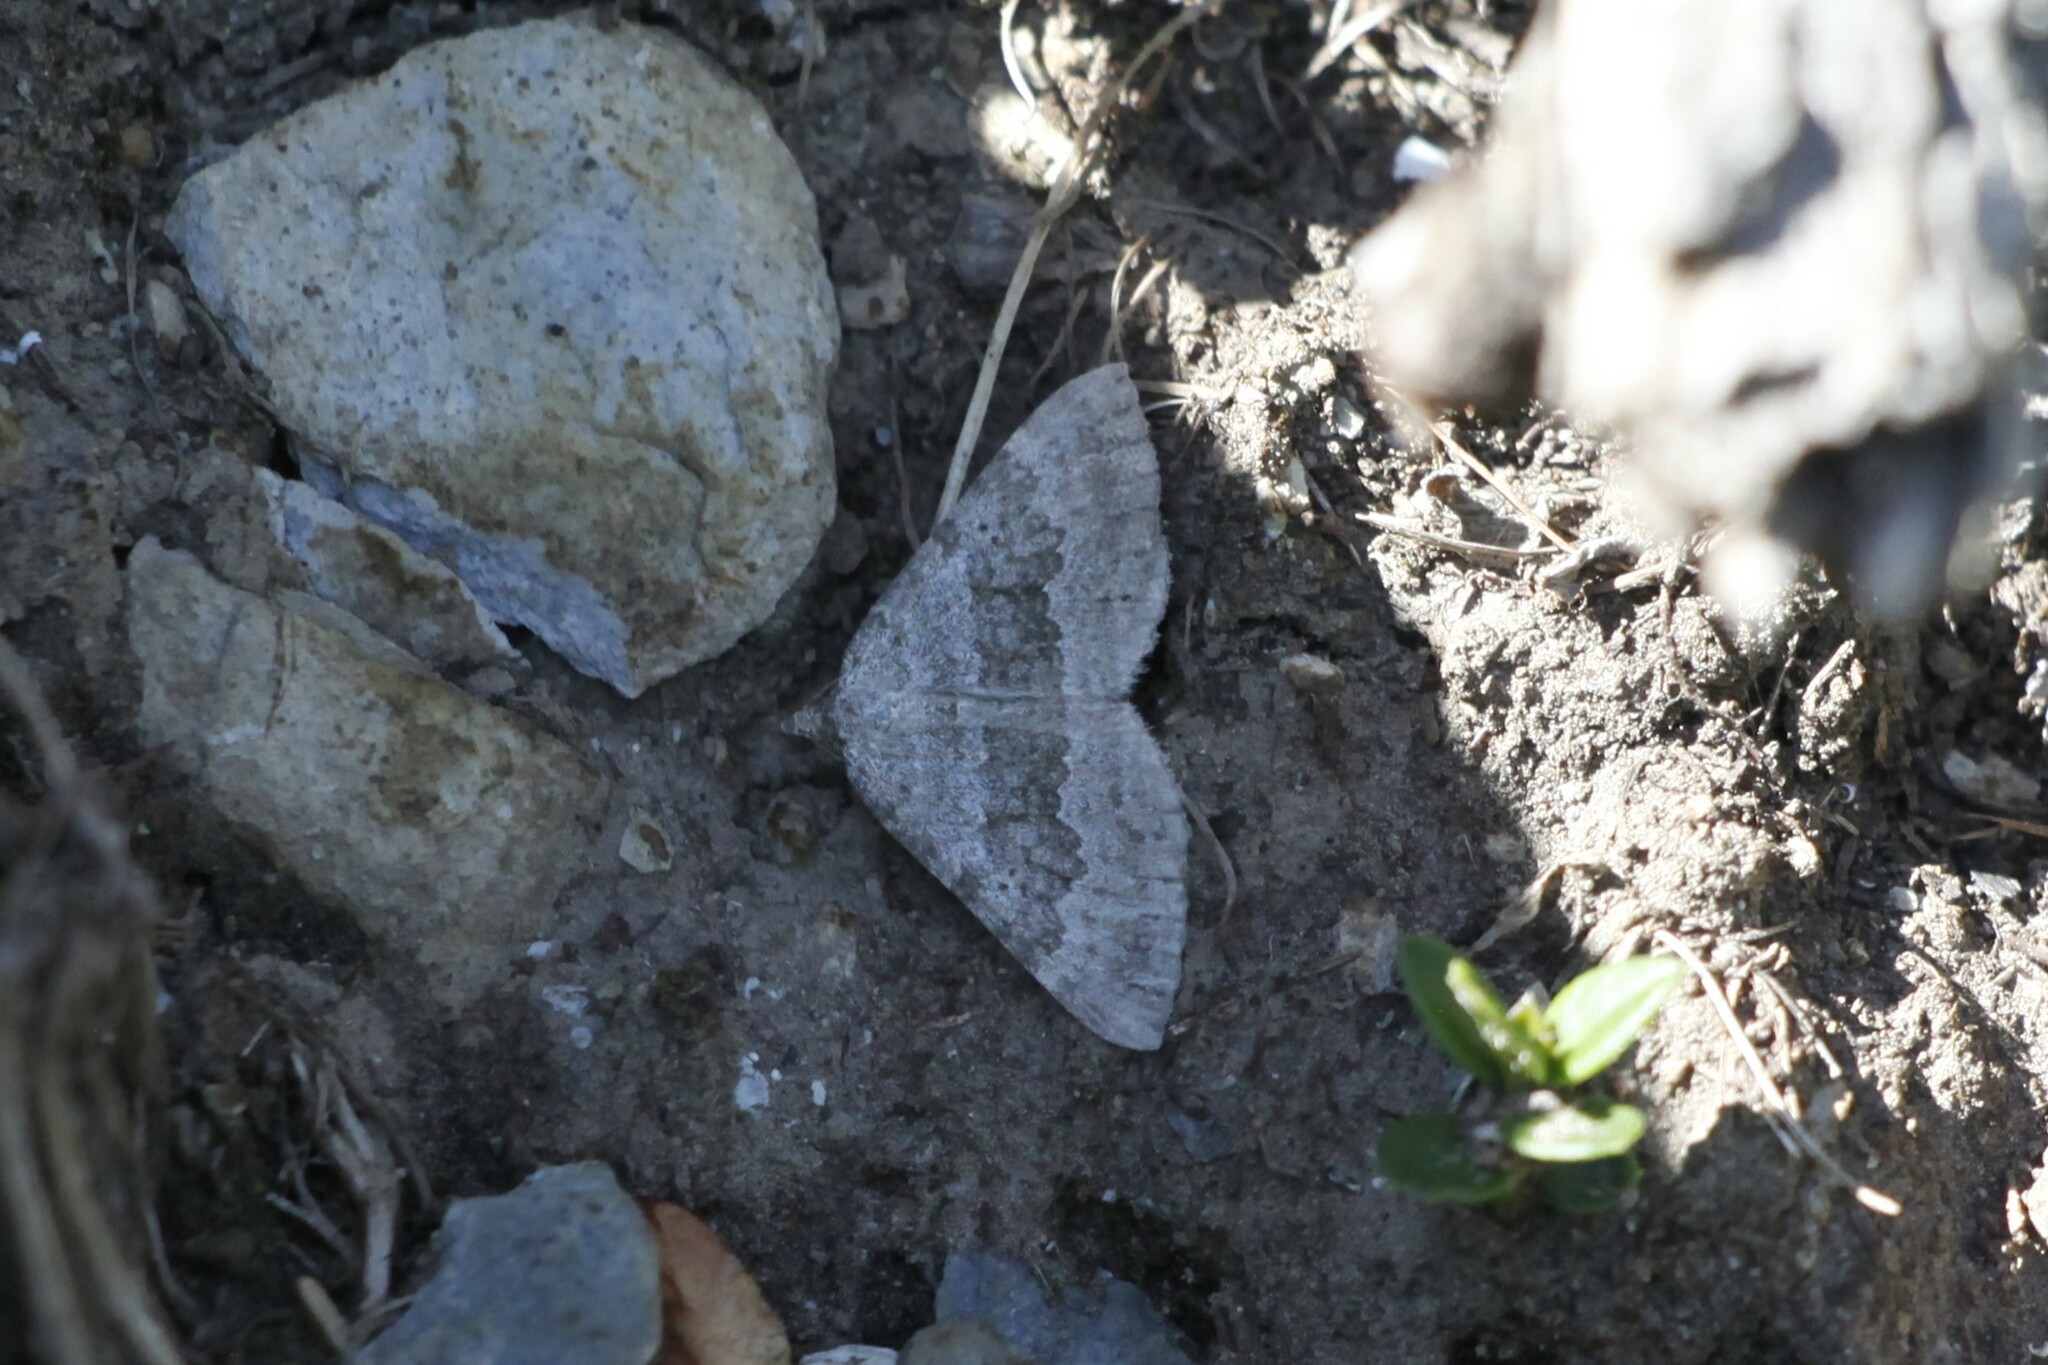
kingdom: Animalia
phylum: Arthropoda
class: Insecta
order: Lepidoptera
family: Geometridae
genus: Scotopteryx
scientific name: Scotopteryx bipunctaria
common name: Chalk carpet
